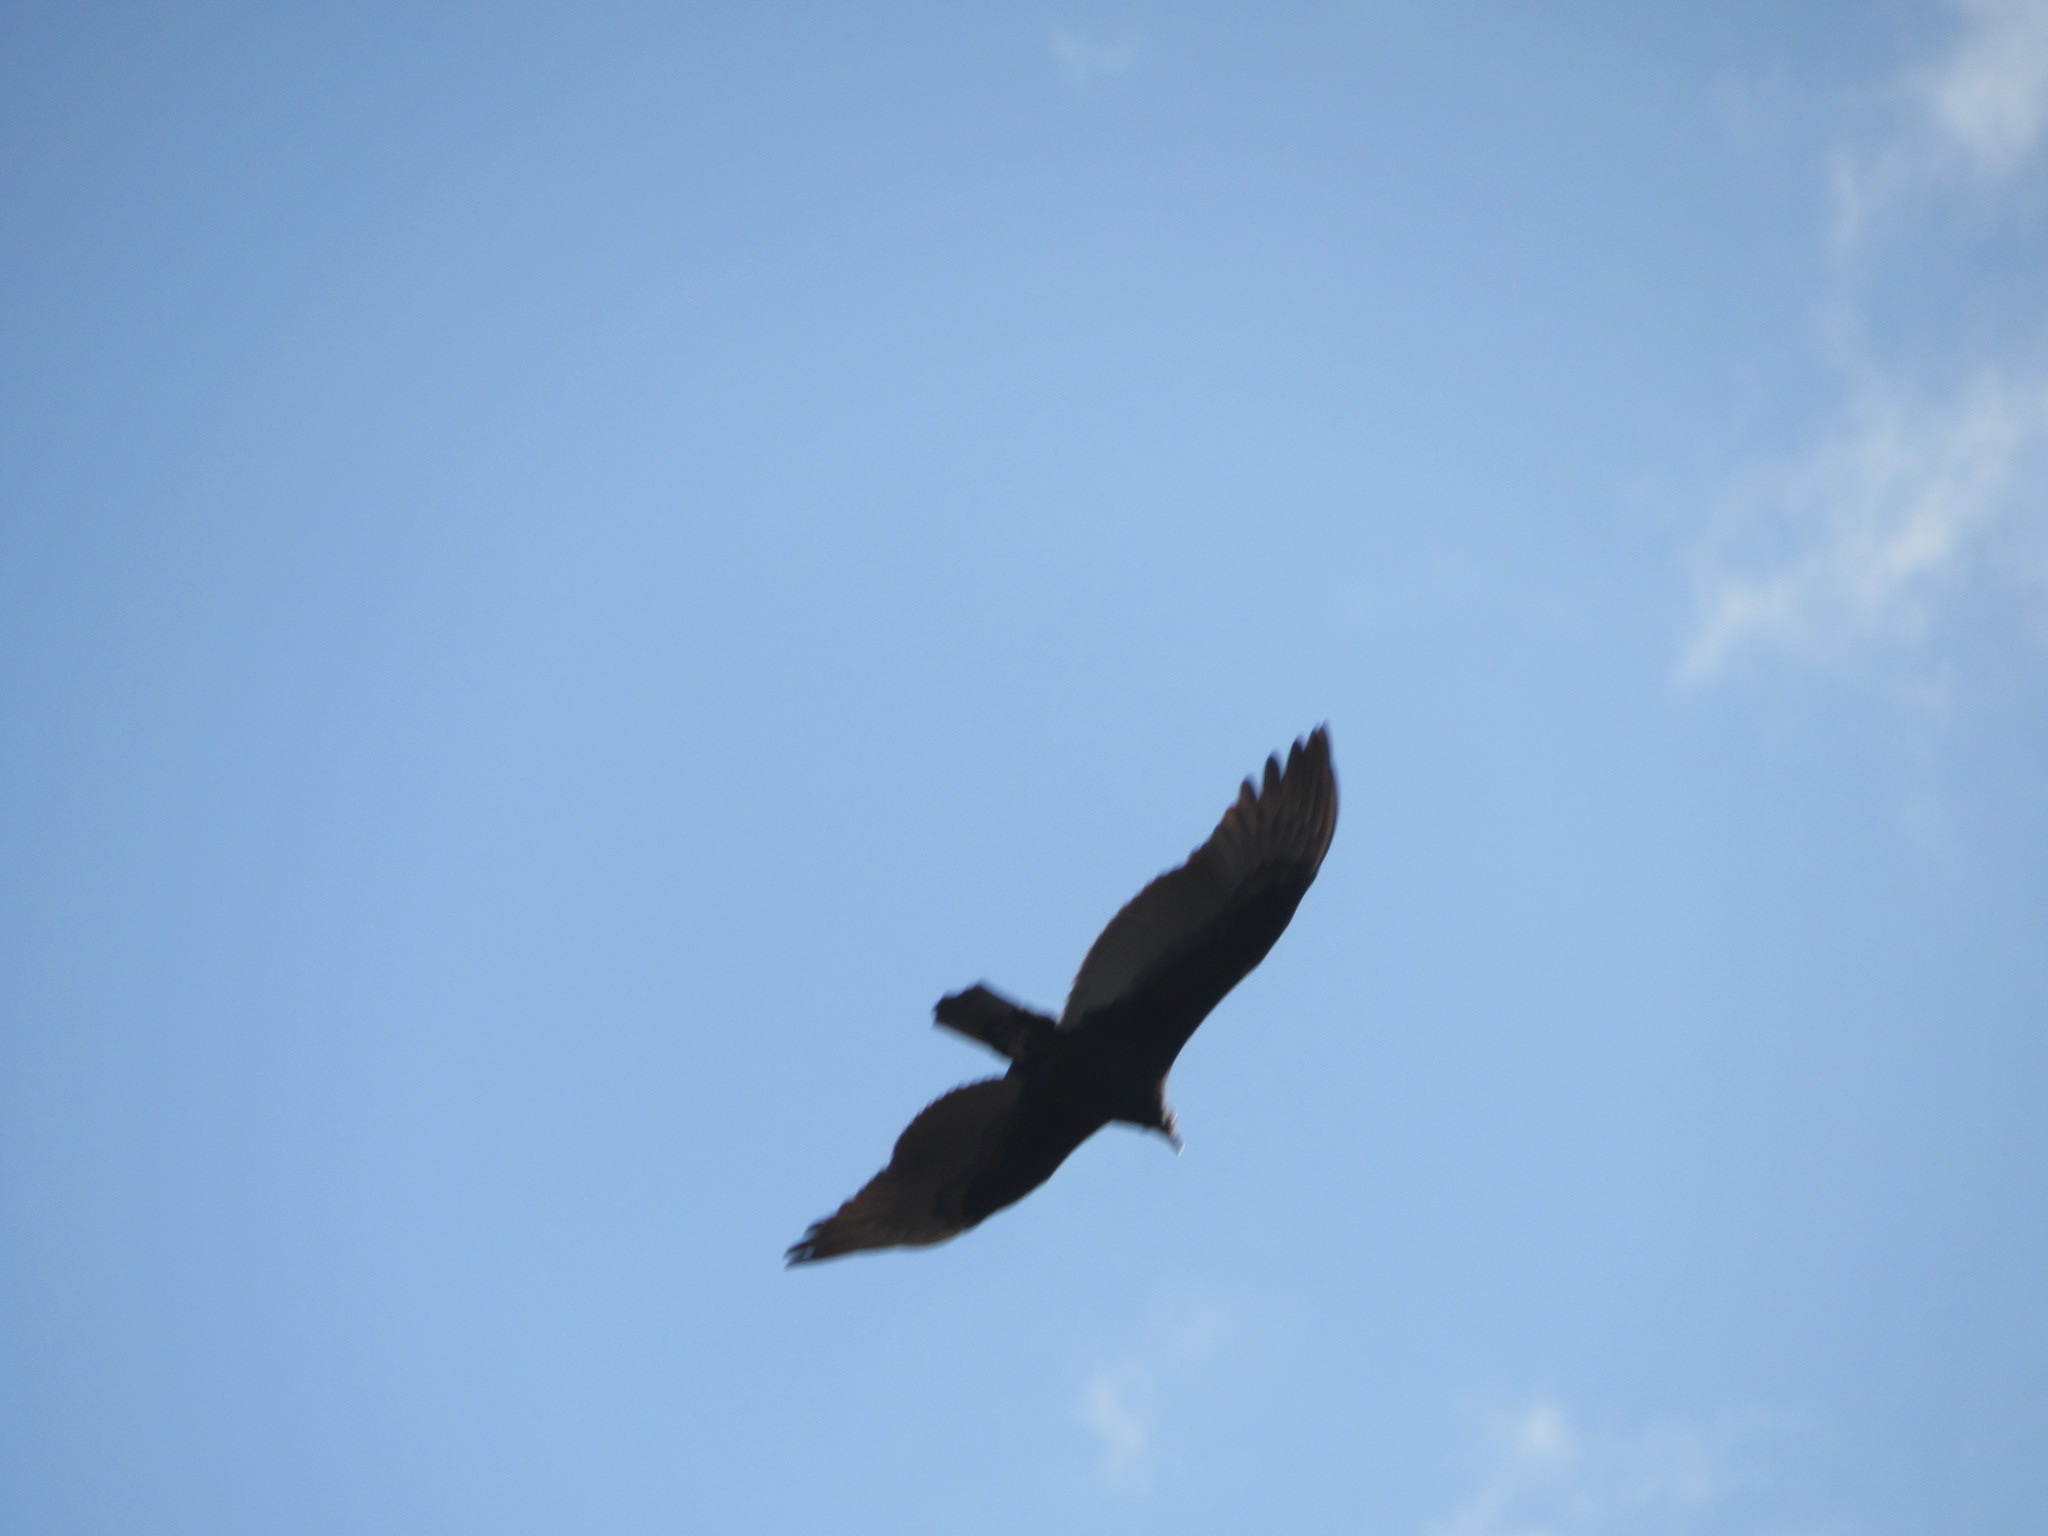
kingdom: Animalia
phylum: Chordata
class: Aves
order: Accipitriformes
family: Cathartidae
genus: Cathartes
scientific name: Cathartes aura
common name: Turkey vulture
